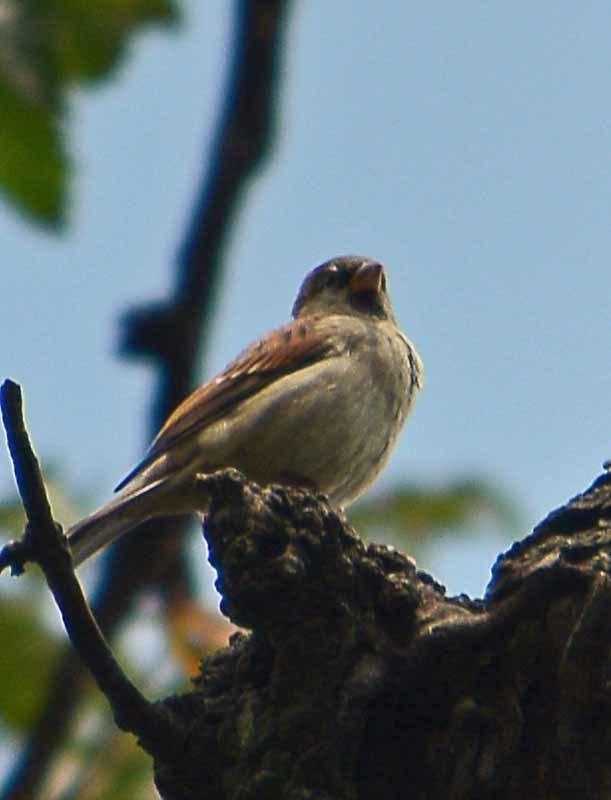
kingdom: Animalia
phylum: Chordata
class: Aves
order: Passeriformes
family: Passeridae
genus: Passer
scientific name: Passer domesticus
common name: House sparrow
